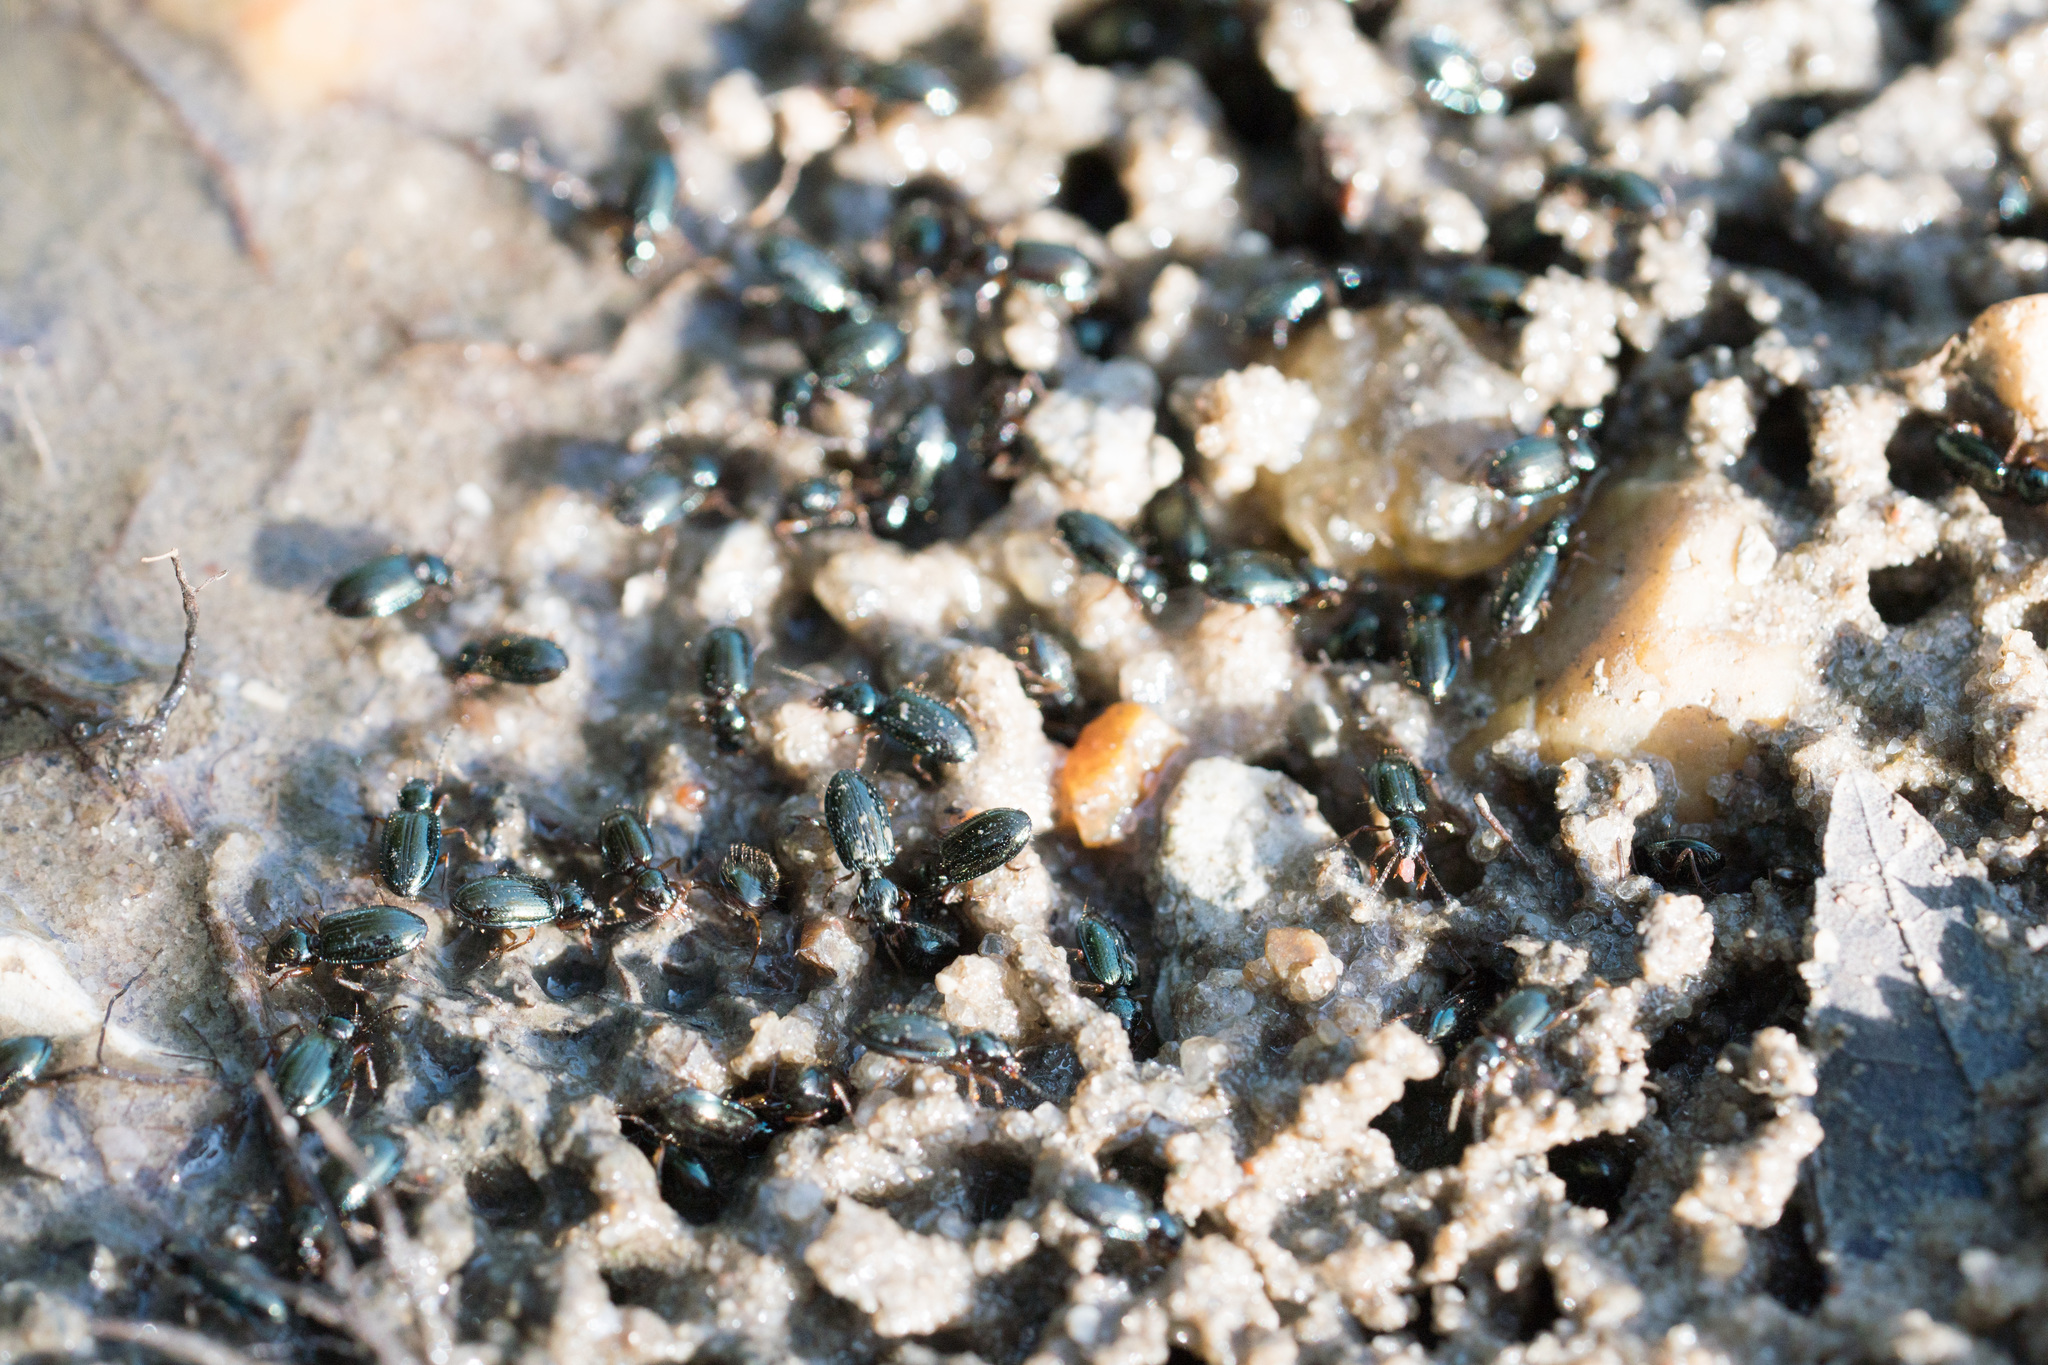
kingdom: Animalia
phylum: Arthropoda
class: Insecta
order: Coleoptera
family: Carabidae
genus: Semiardistomis
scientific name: Semiardistomis viridis
